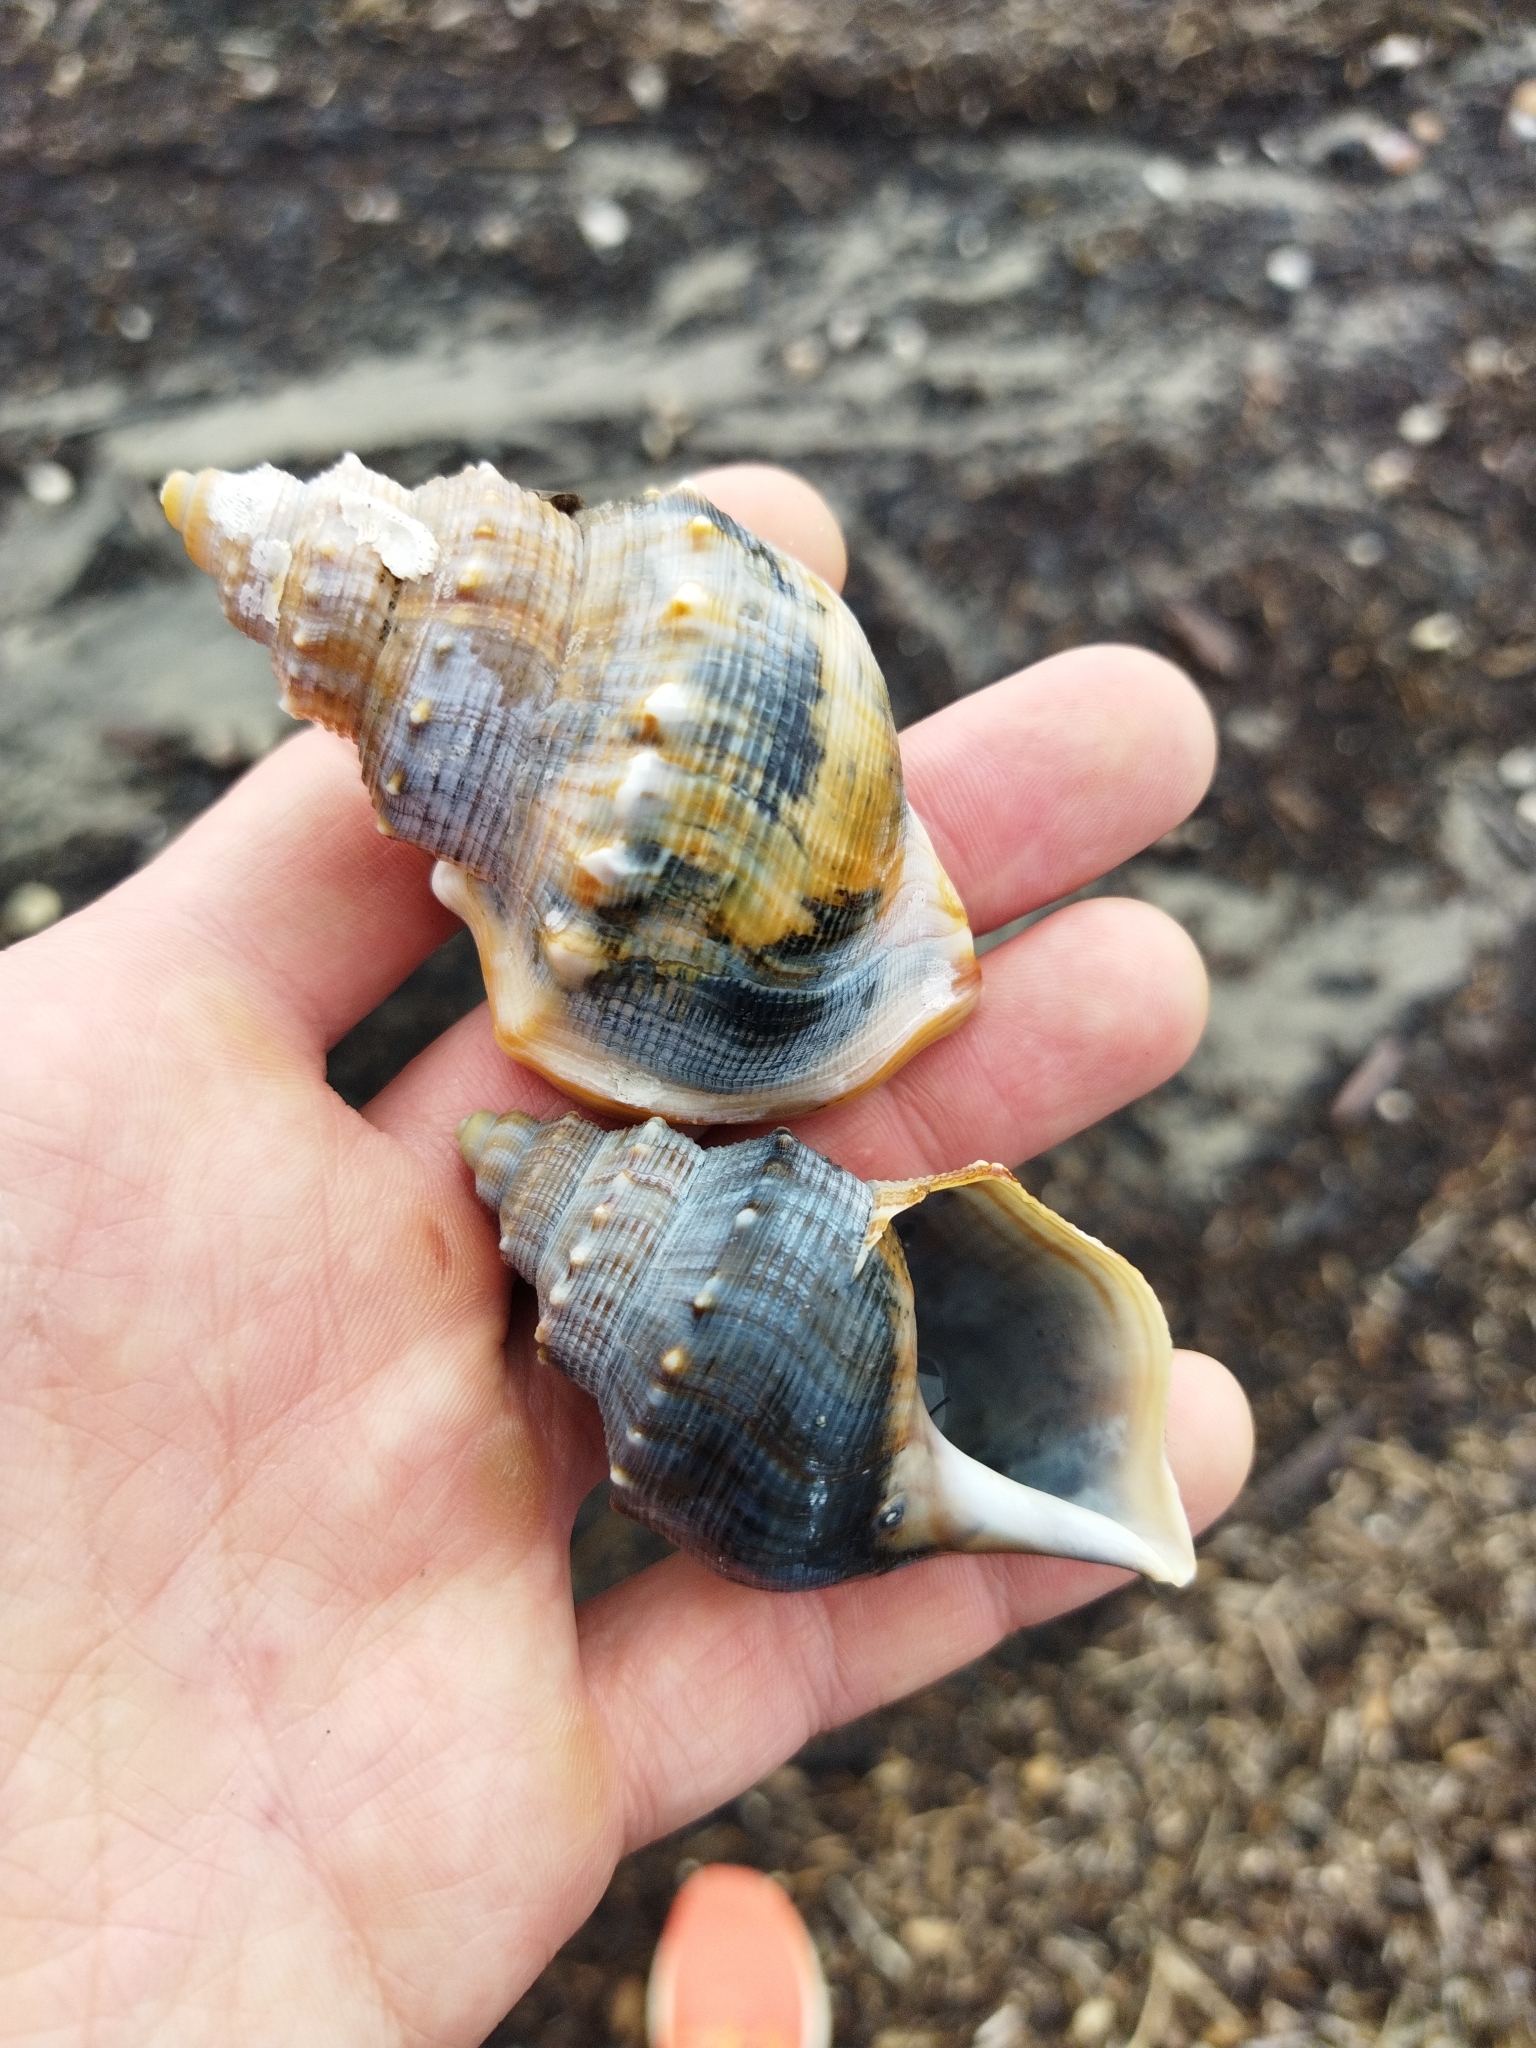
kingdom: Animalia
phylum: Mollusca
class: Gastropoda
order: Littorinimorpha
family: Struthiolariidae
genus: Struthiolaria
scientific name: Struthiolaria papulosa
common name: Large ostrich foot
